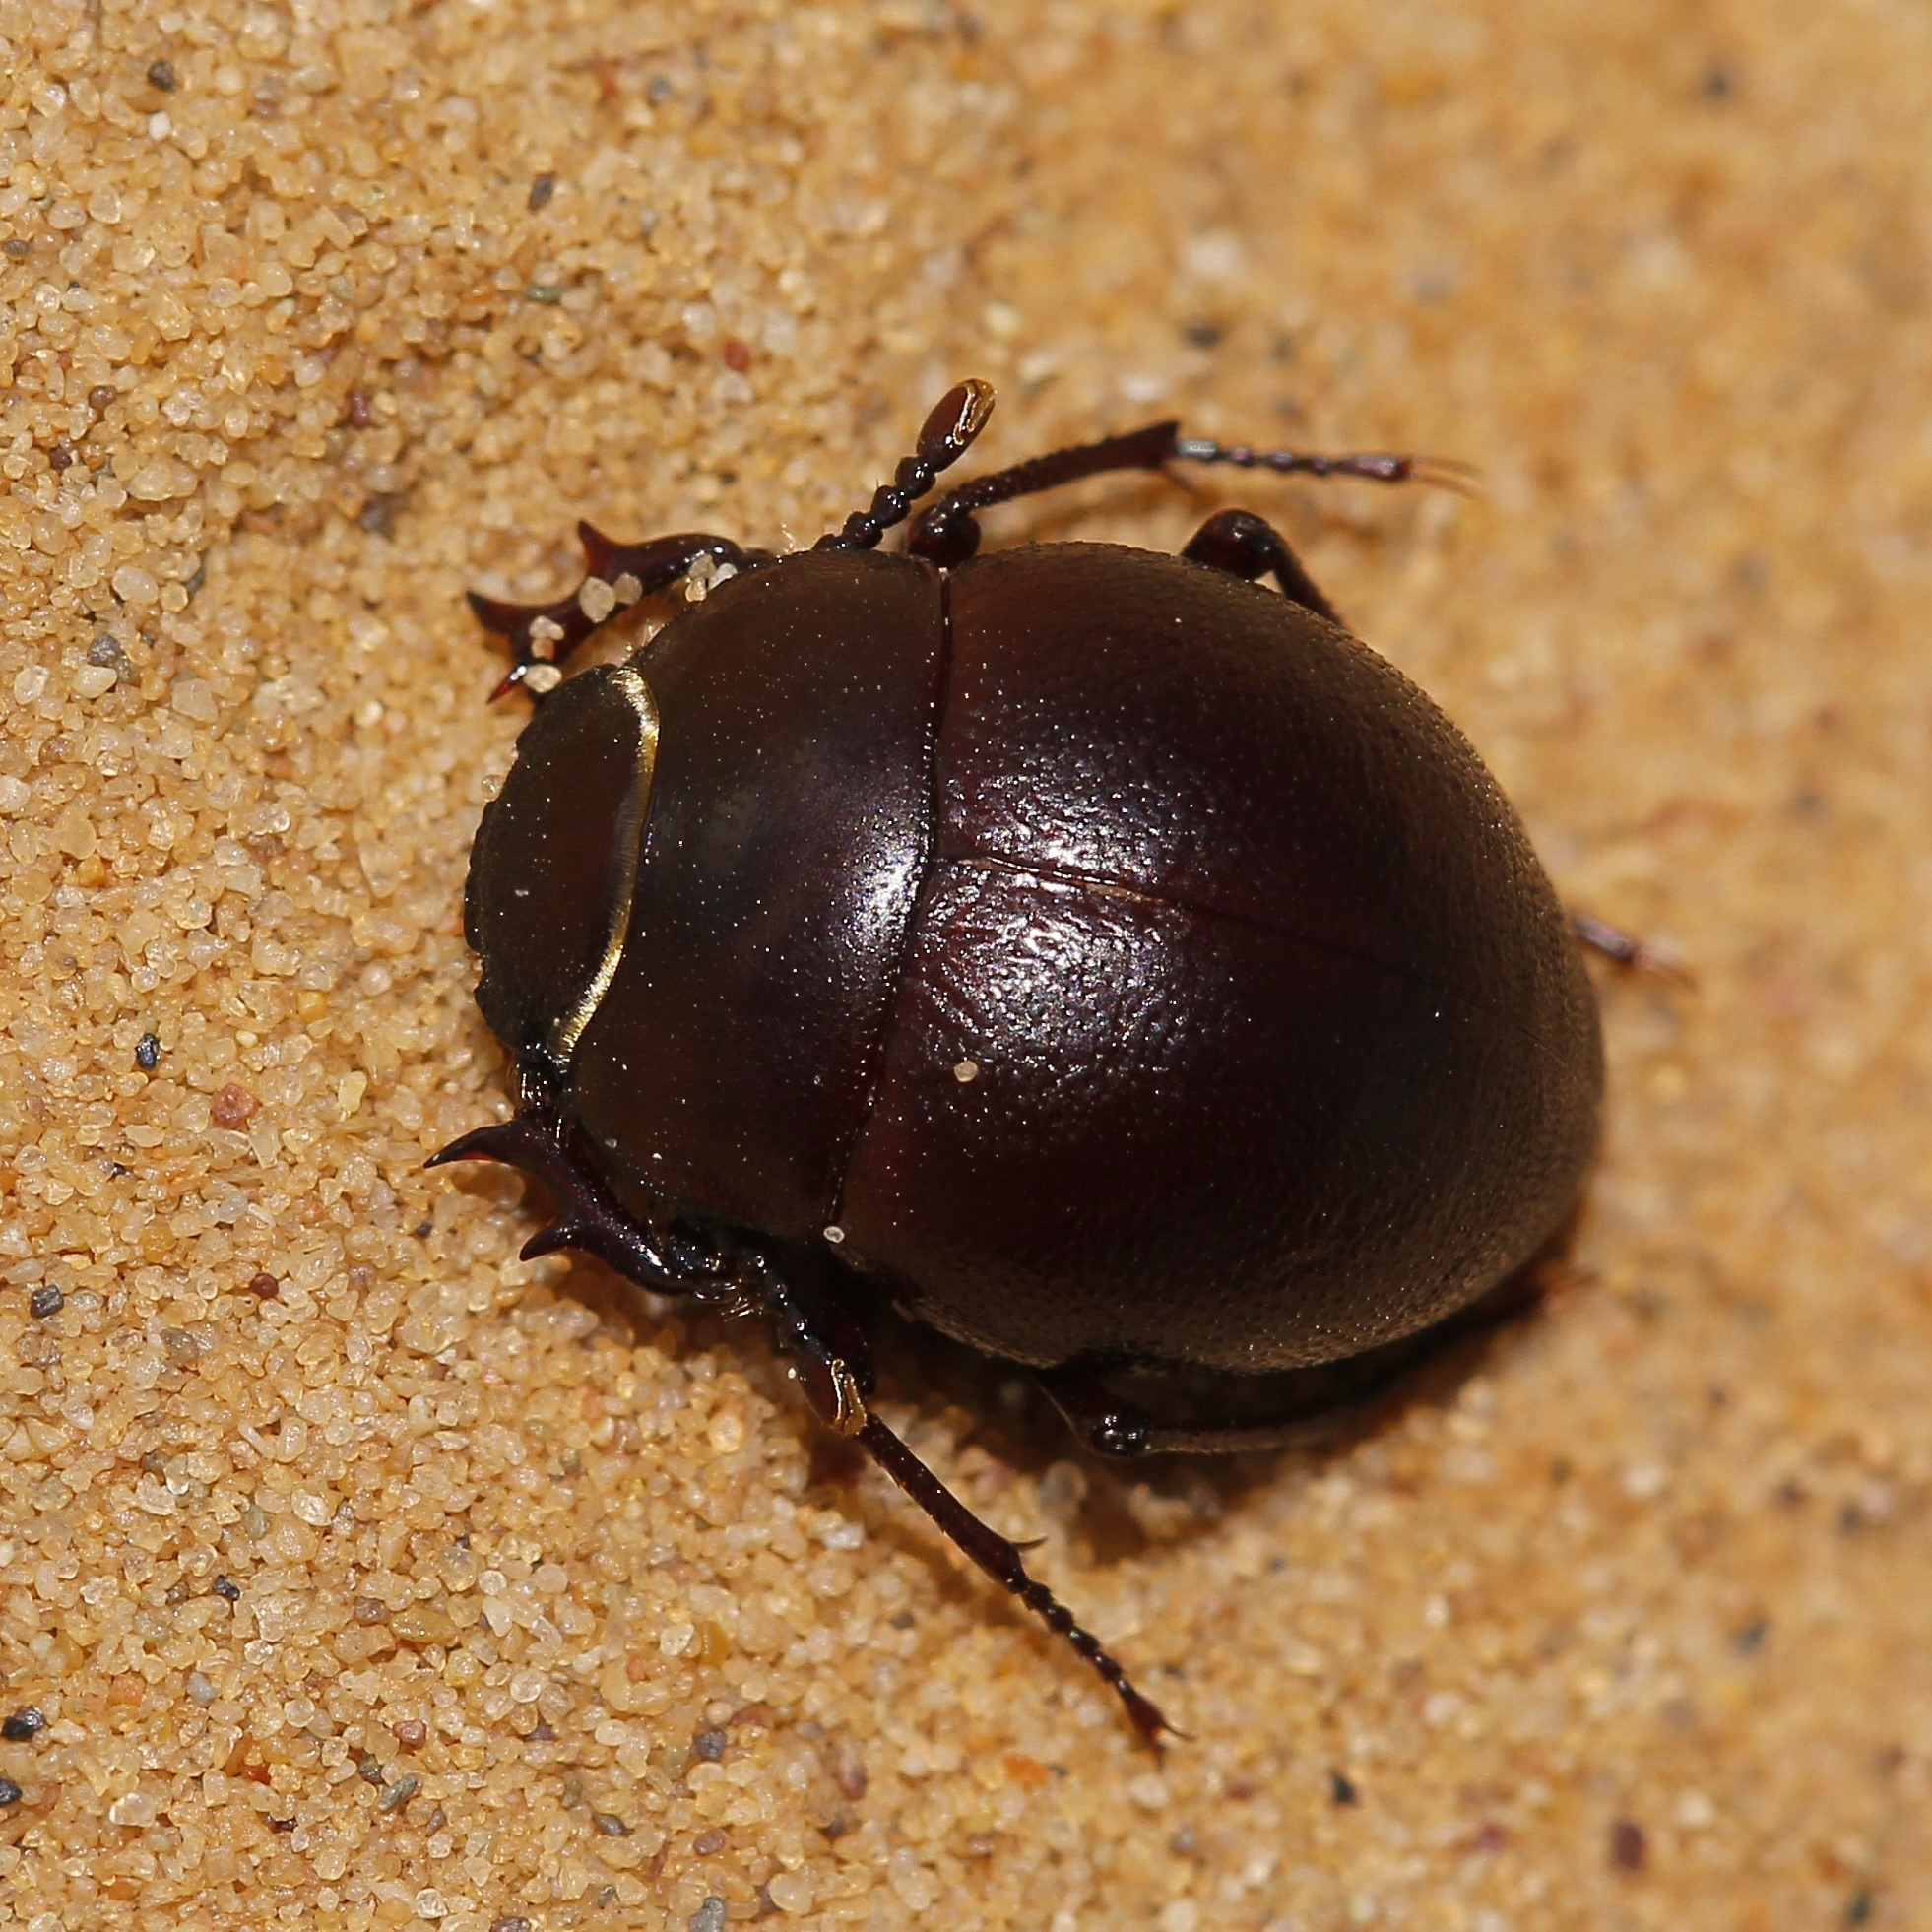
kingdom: Animalia
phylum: Arthropoda
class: Insecta
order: Coleoptera
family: Tenebrionidae
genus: Diaphanidus
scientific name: Diaphanidus
